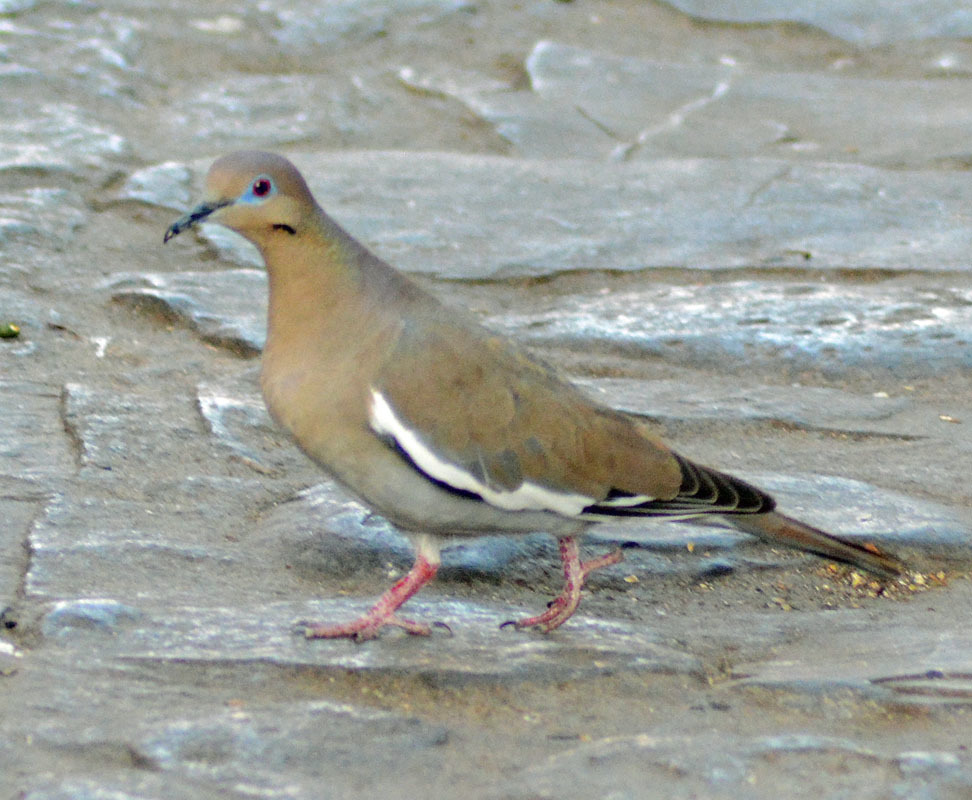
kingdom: Animalia
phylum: Chordata
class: Aves
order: Columbiformes
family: Columbidae
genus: Zenaida
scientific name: Zenaida asiatica
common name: White-winged dove
